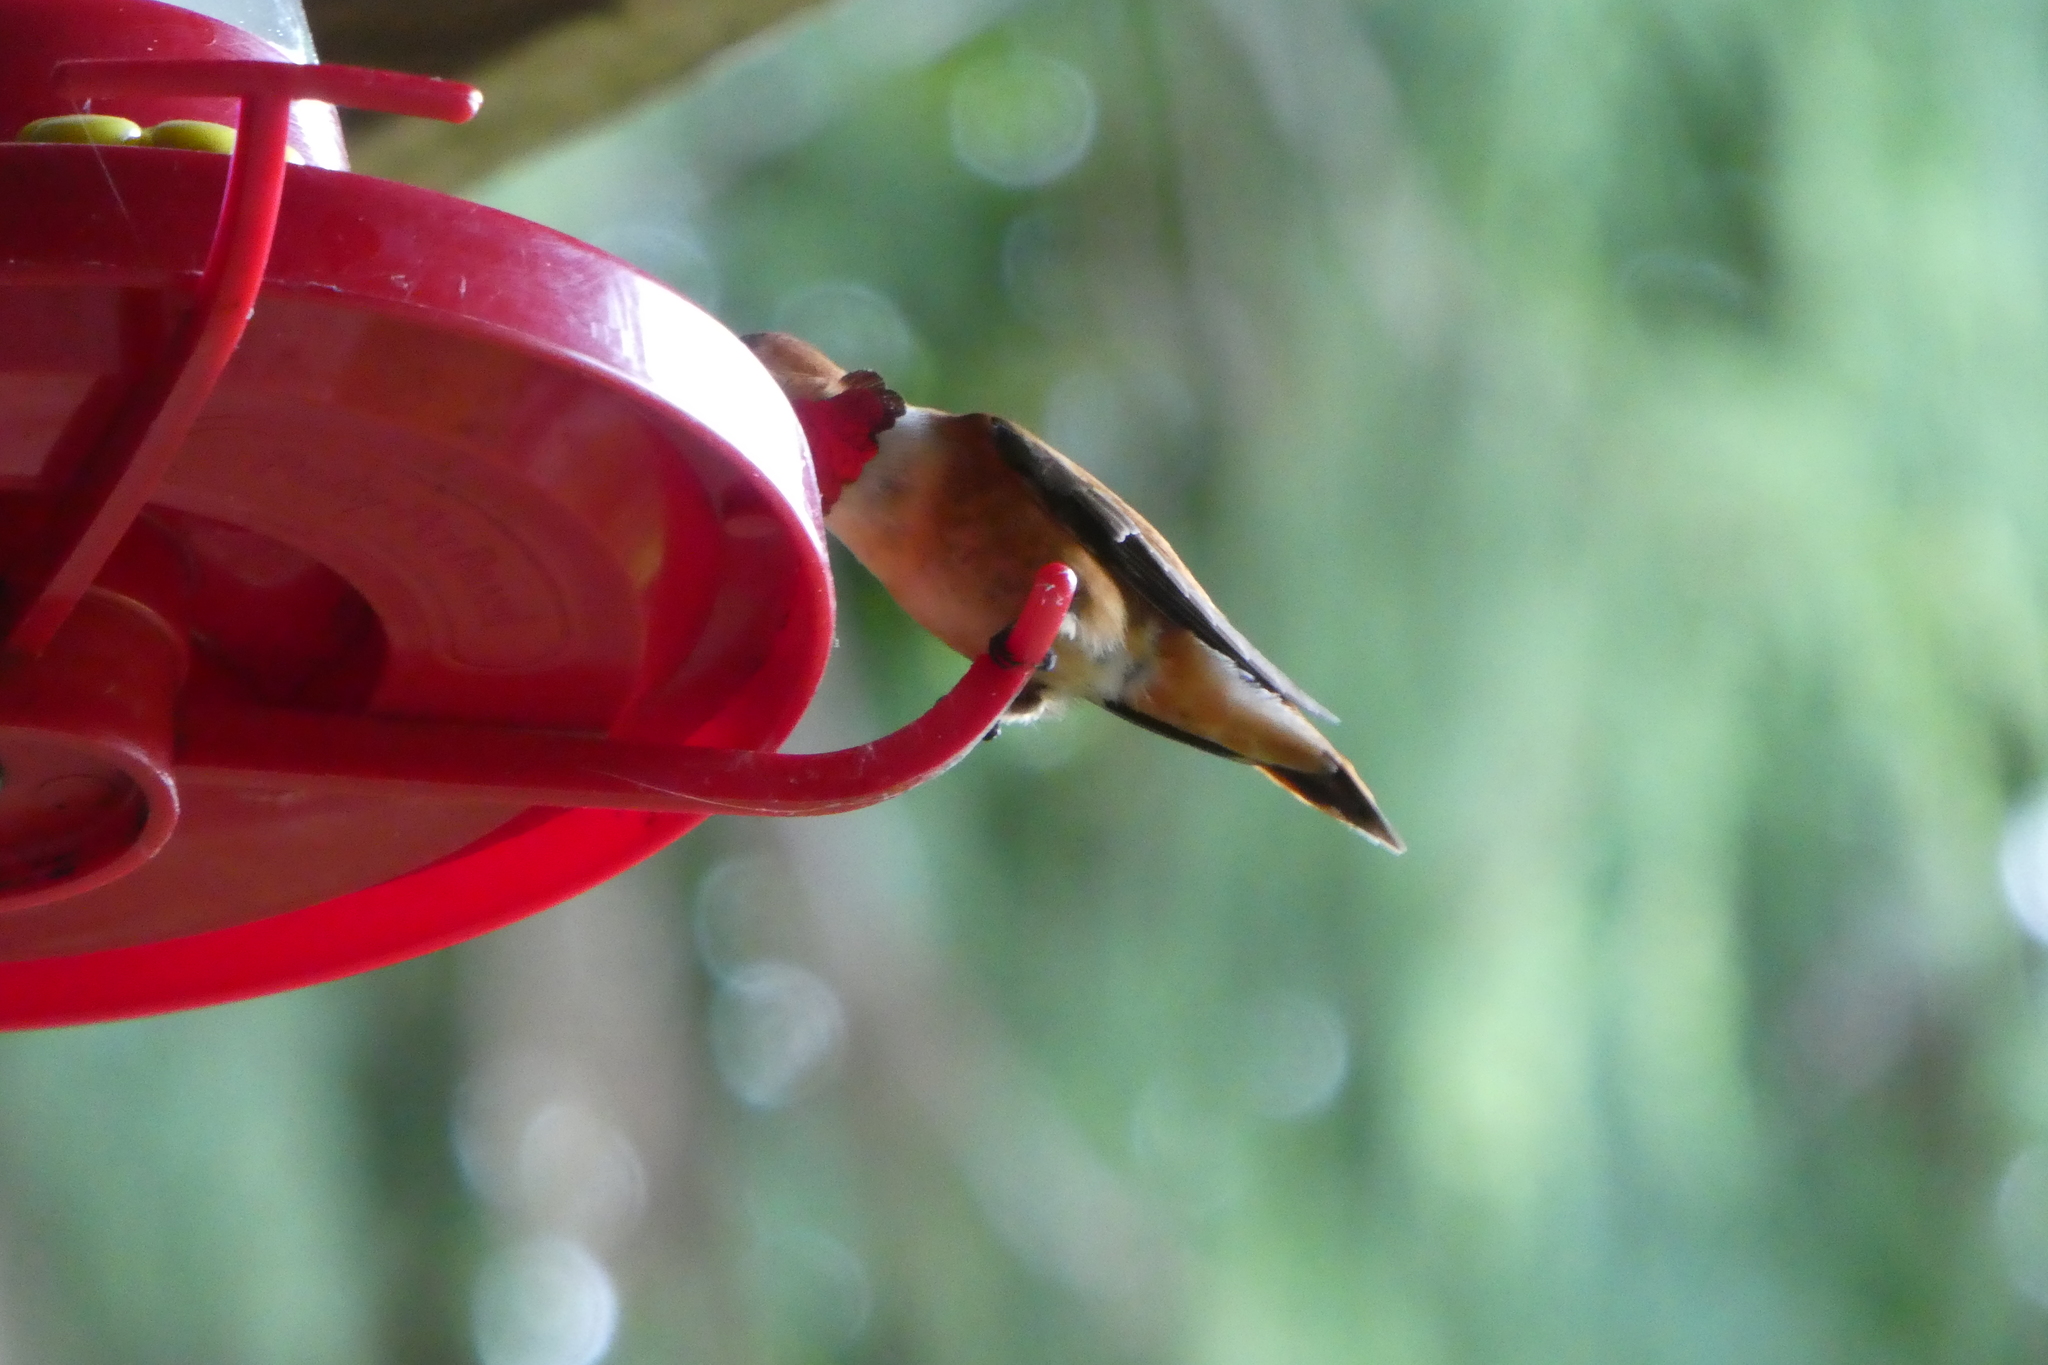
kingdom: Animalia
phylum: Chordata
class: Aves
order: Apodiformes
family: Trochilidae
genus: Selasphorus
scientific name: Selasphorus rufus
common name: Rufous hummingbird
